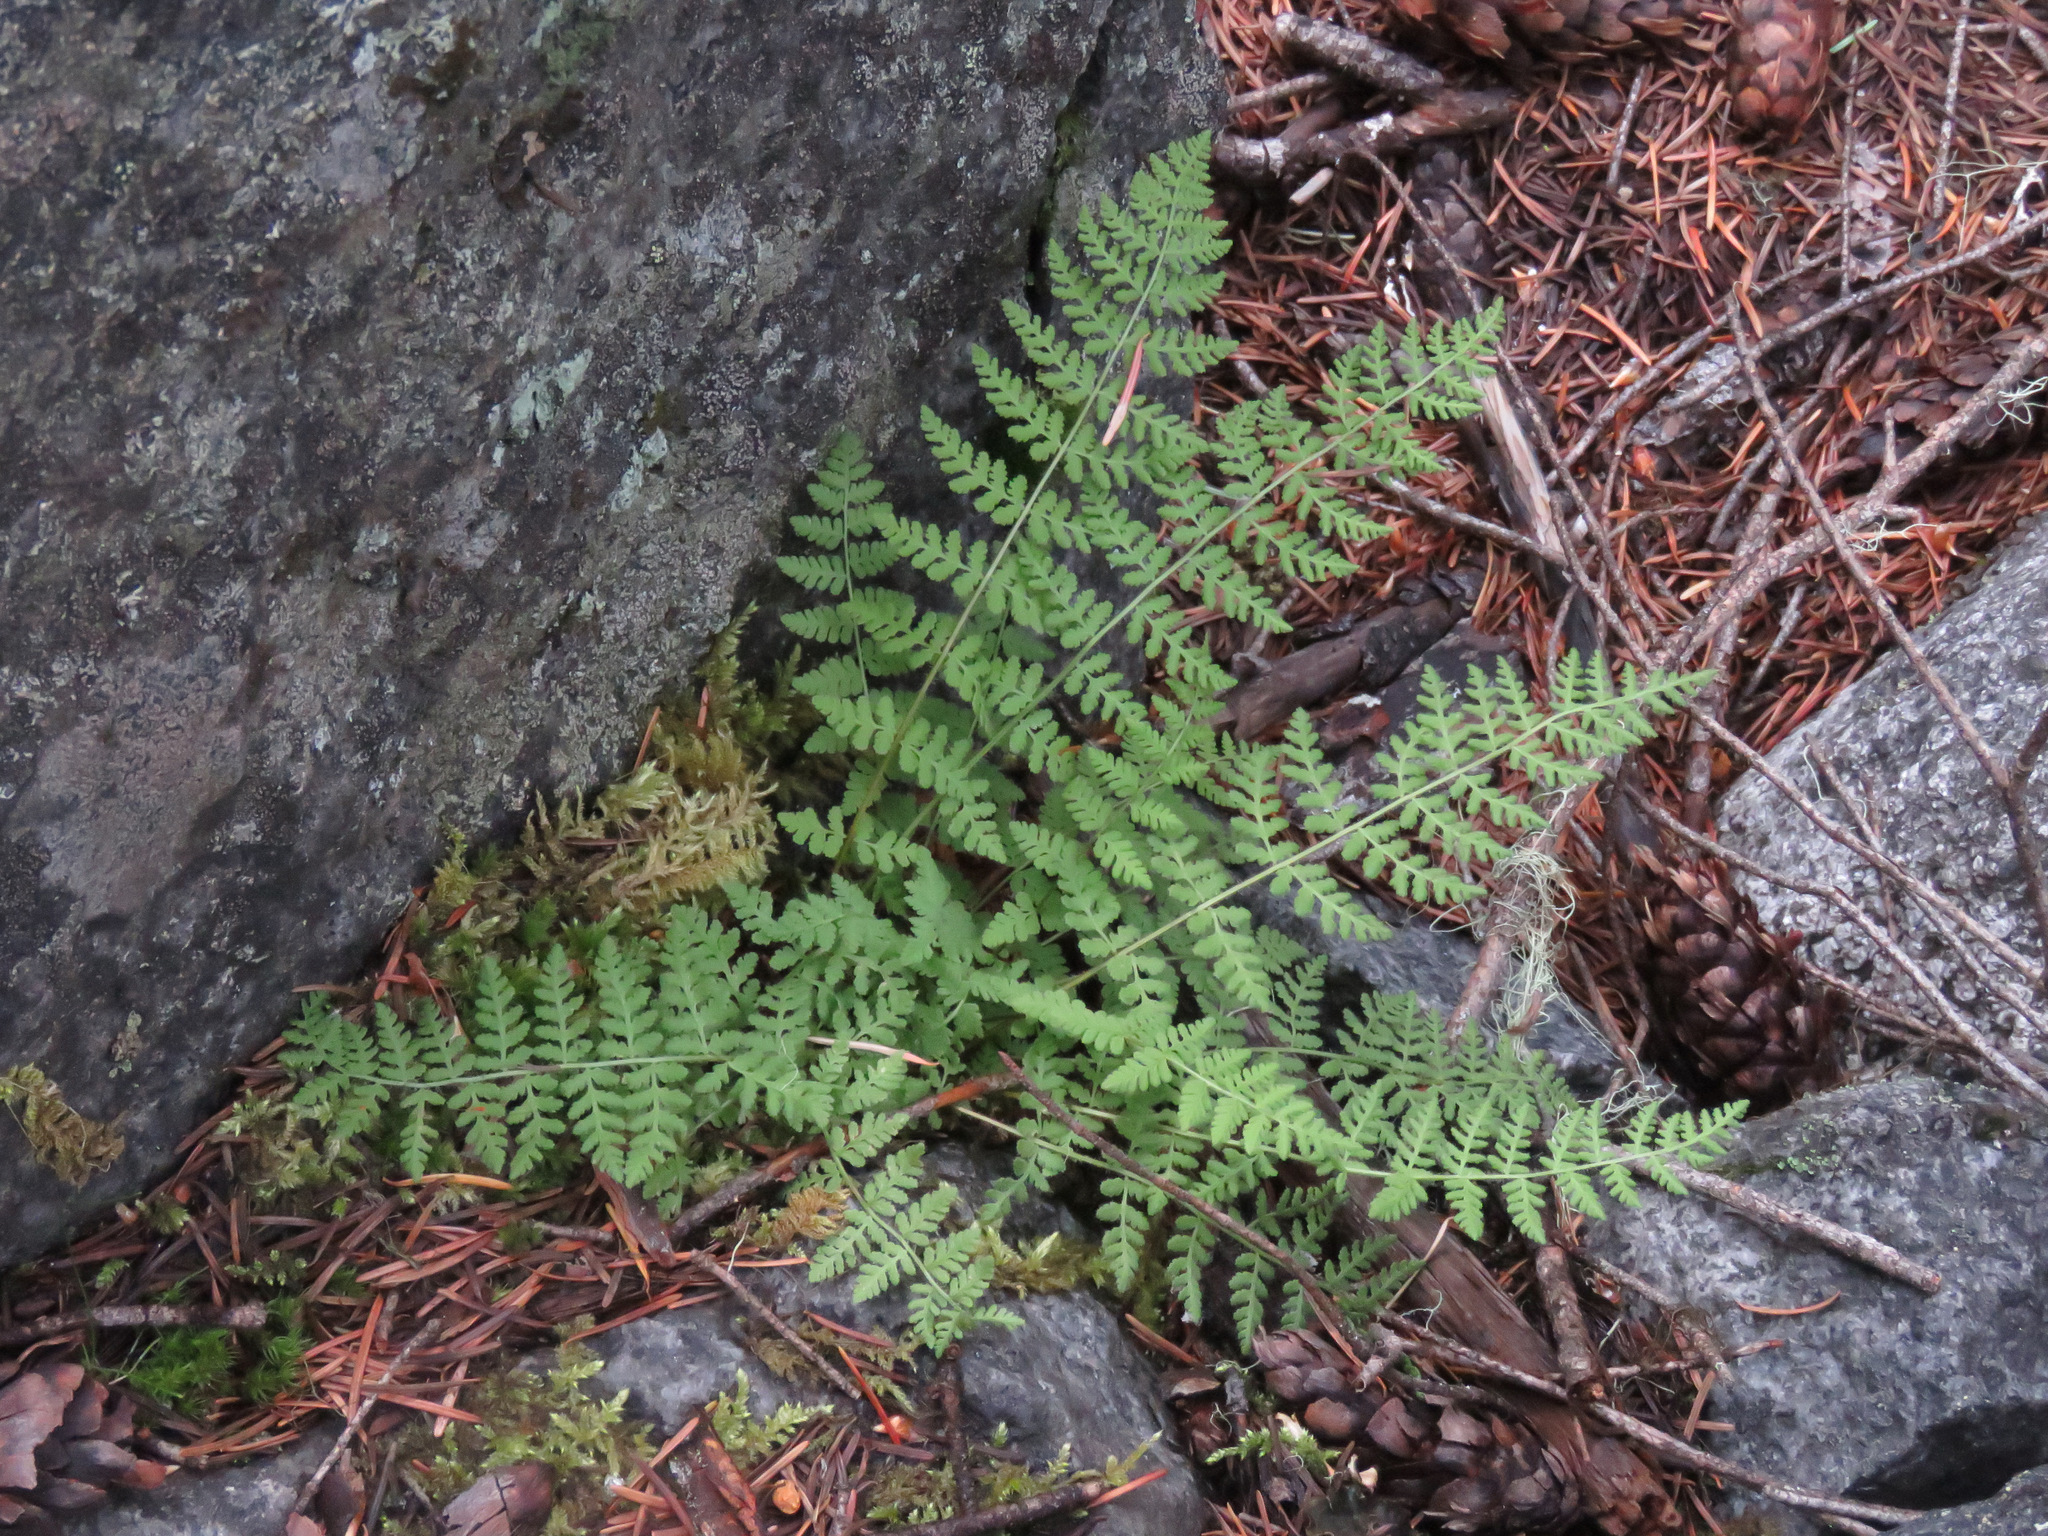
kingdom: Plantae
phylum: Tracheophyta
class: Polypodiopsida
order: Polypodiales
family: Woodsiaceae
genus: Physematium
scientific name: Physematium scopulinum
